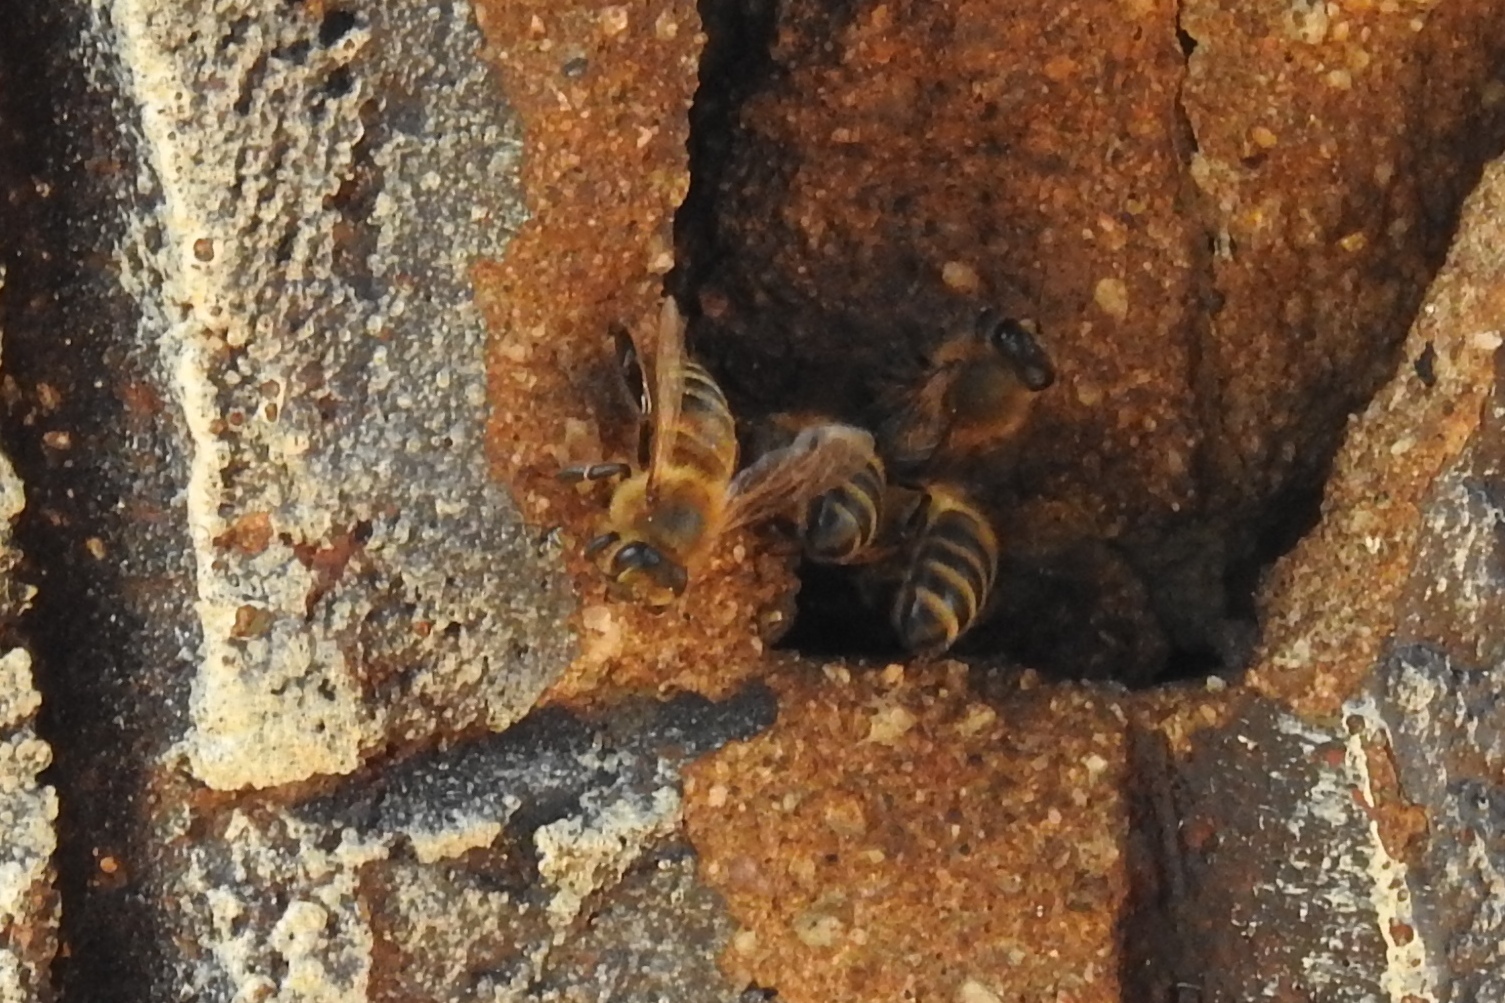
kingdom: Animalia
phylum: Arthropoda
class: Insecta
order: Hymenoptera
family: Apidae
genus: Apis
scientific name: Apis mellifera
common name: Honey bee
